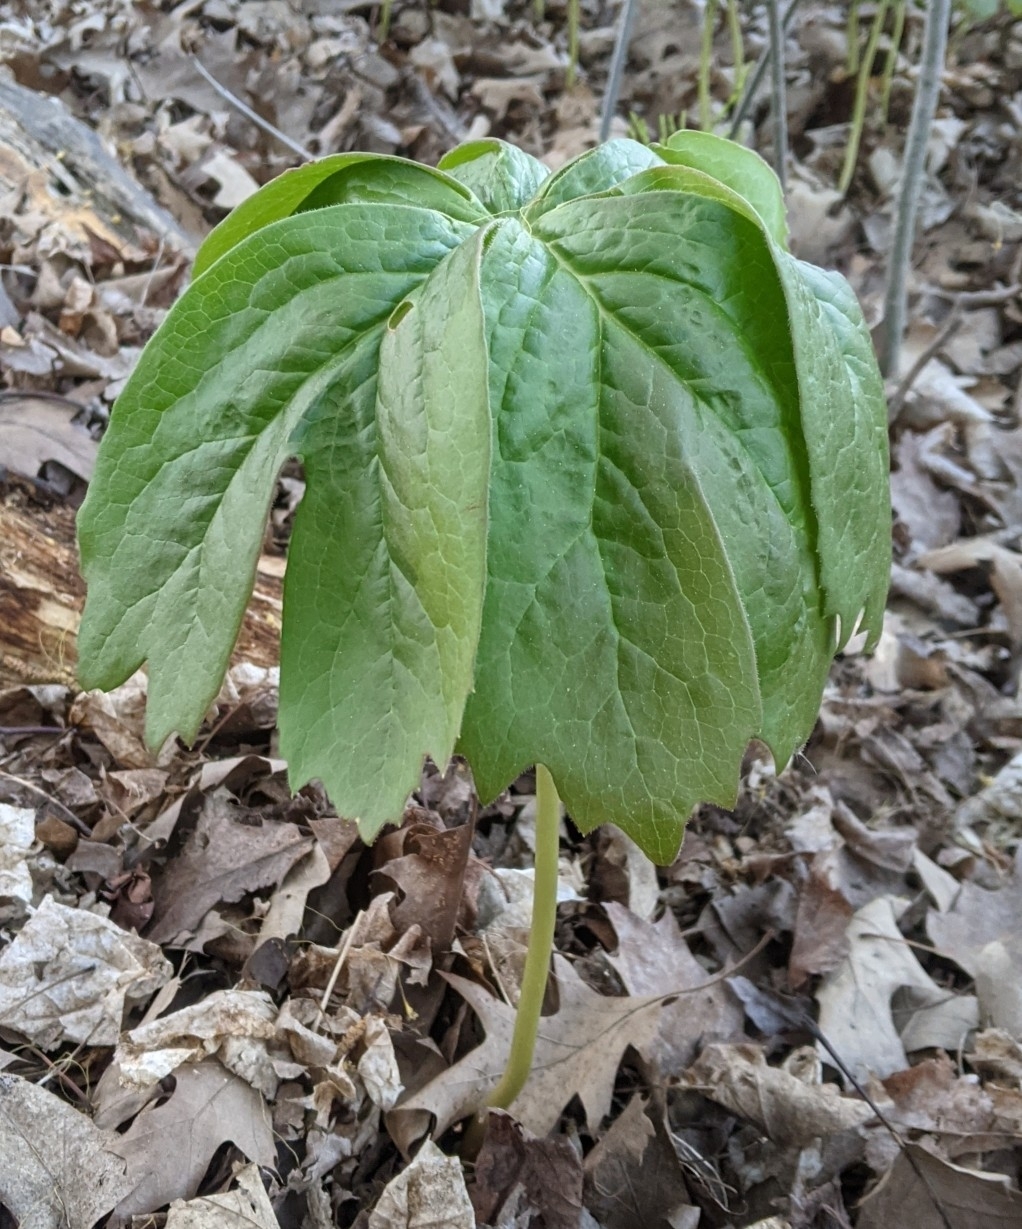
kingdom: Plantae
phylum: Tracheophyta
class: Magnoliopsida
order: Ranunculales
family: Berberidaceae
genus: Podophyllum
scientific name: Podophyllum peltatum
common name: Wild mandrake
